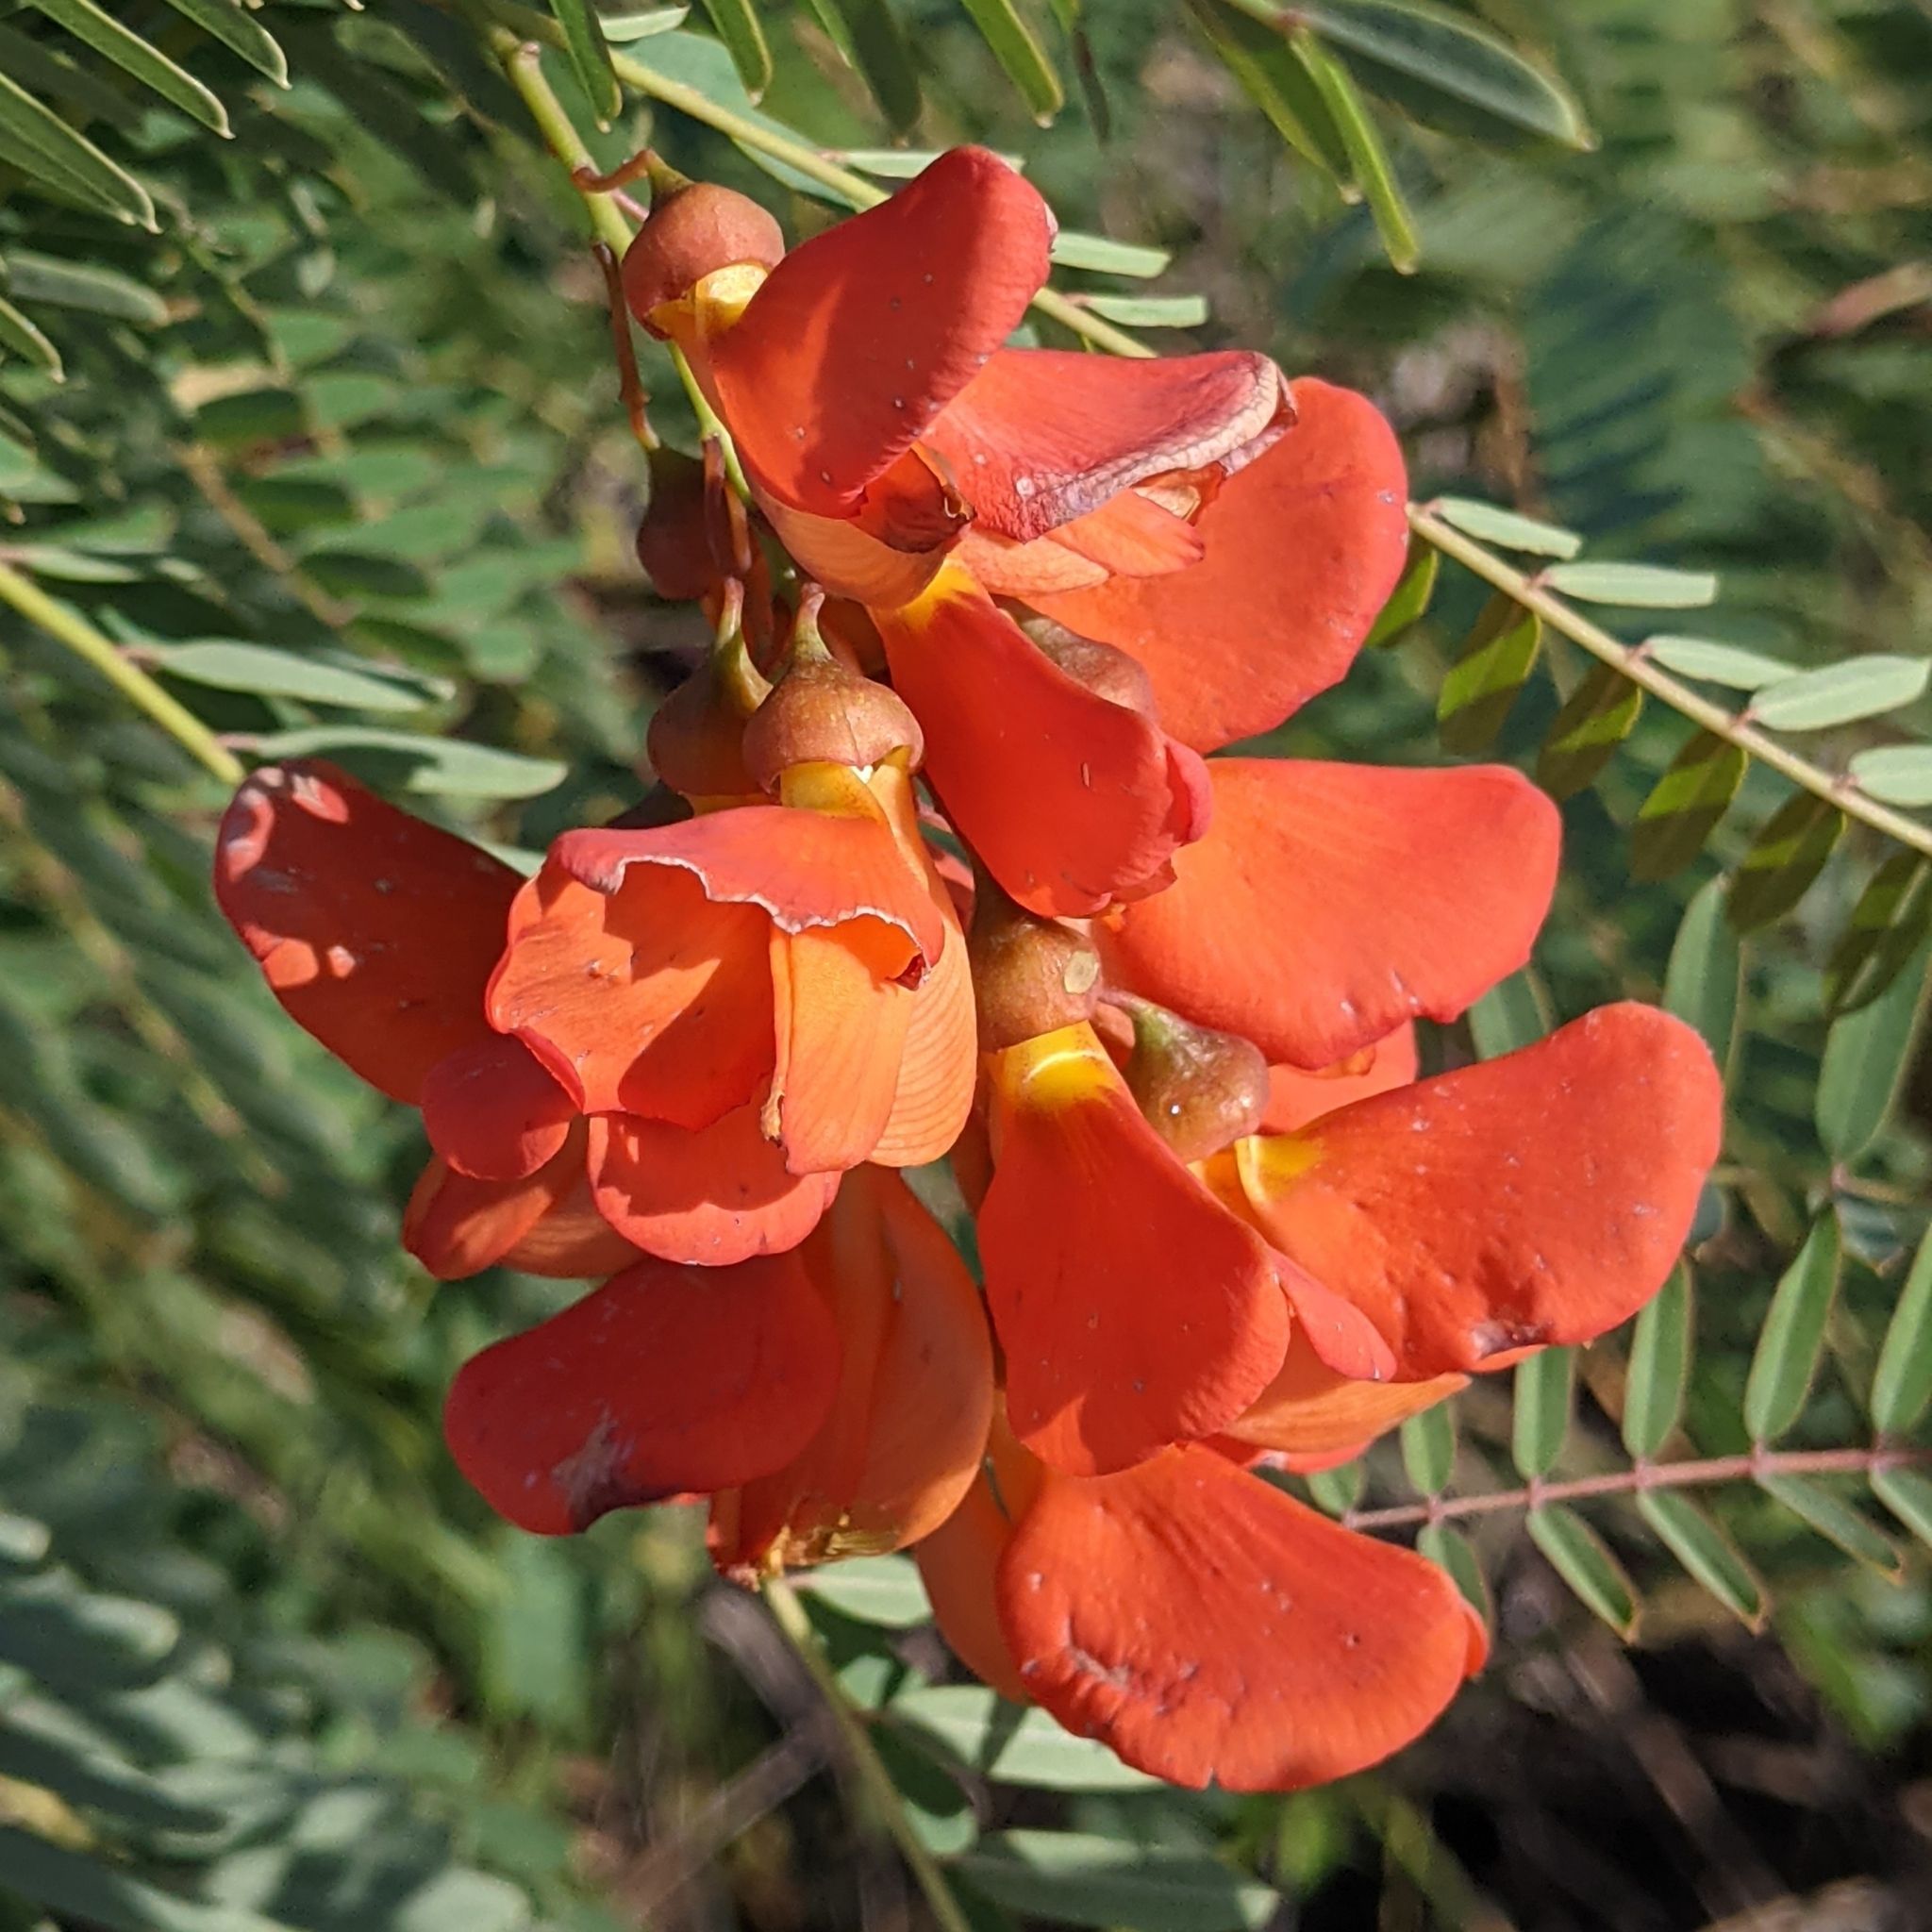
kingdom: Plantae
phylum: Tracheophyta
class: Magnoliopsida
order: Fabales
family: Fabaceae
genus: Sesbania
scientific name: Sesbania punicea
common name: Rattlebox
